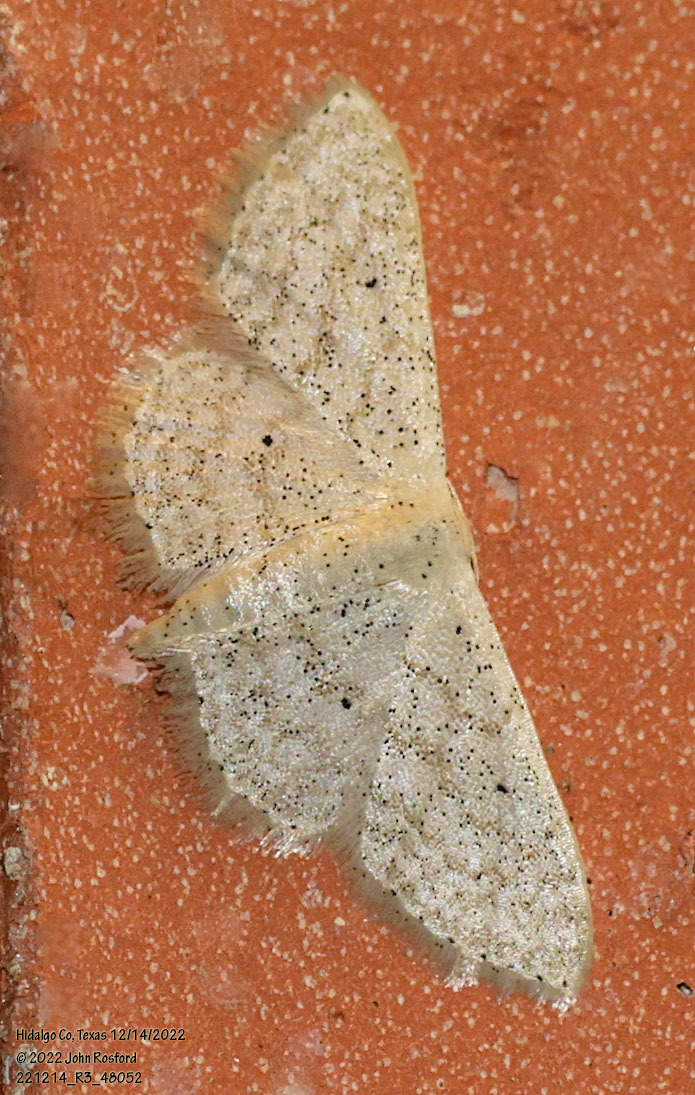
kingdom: Animalia
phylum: Arthropoda
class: Insecta
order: Lepidoptera
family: Geometridae
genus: Scopula
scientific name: Scopula benitaria
